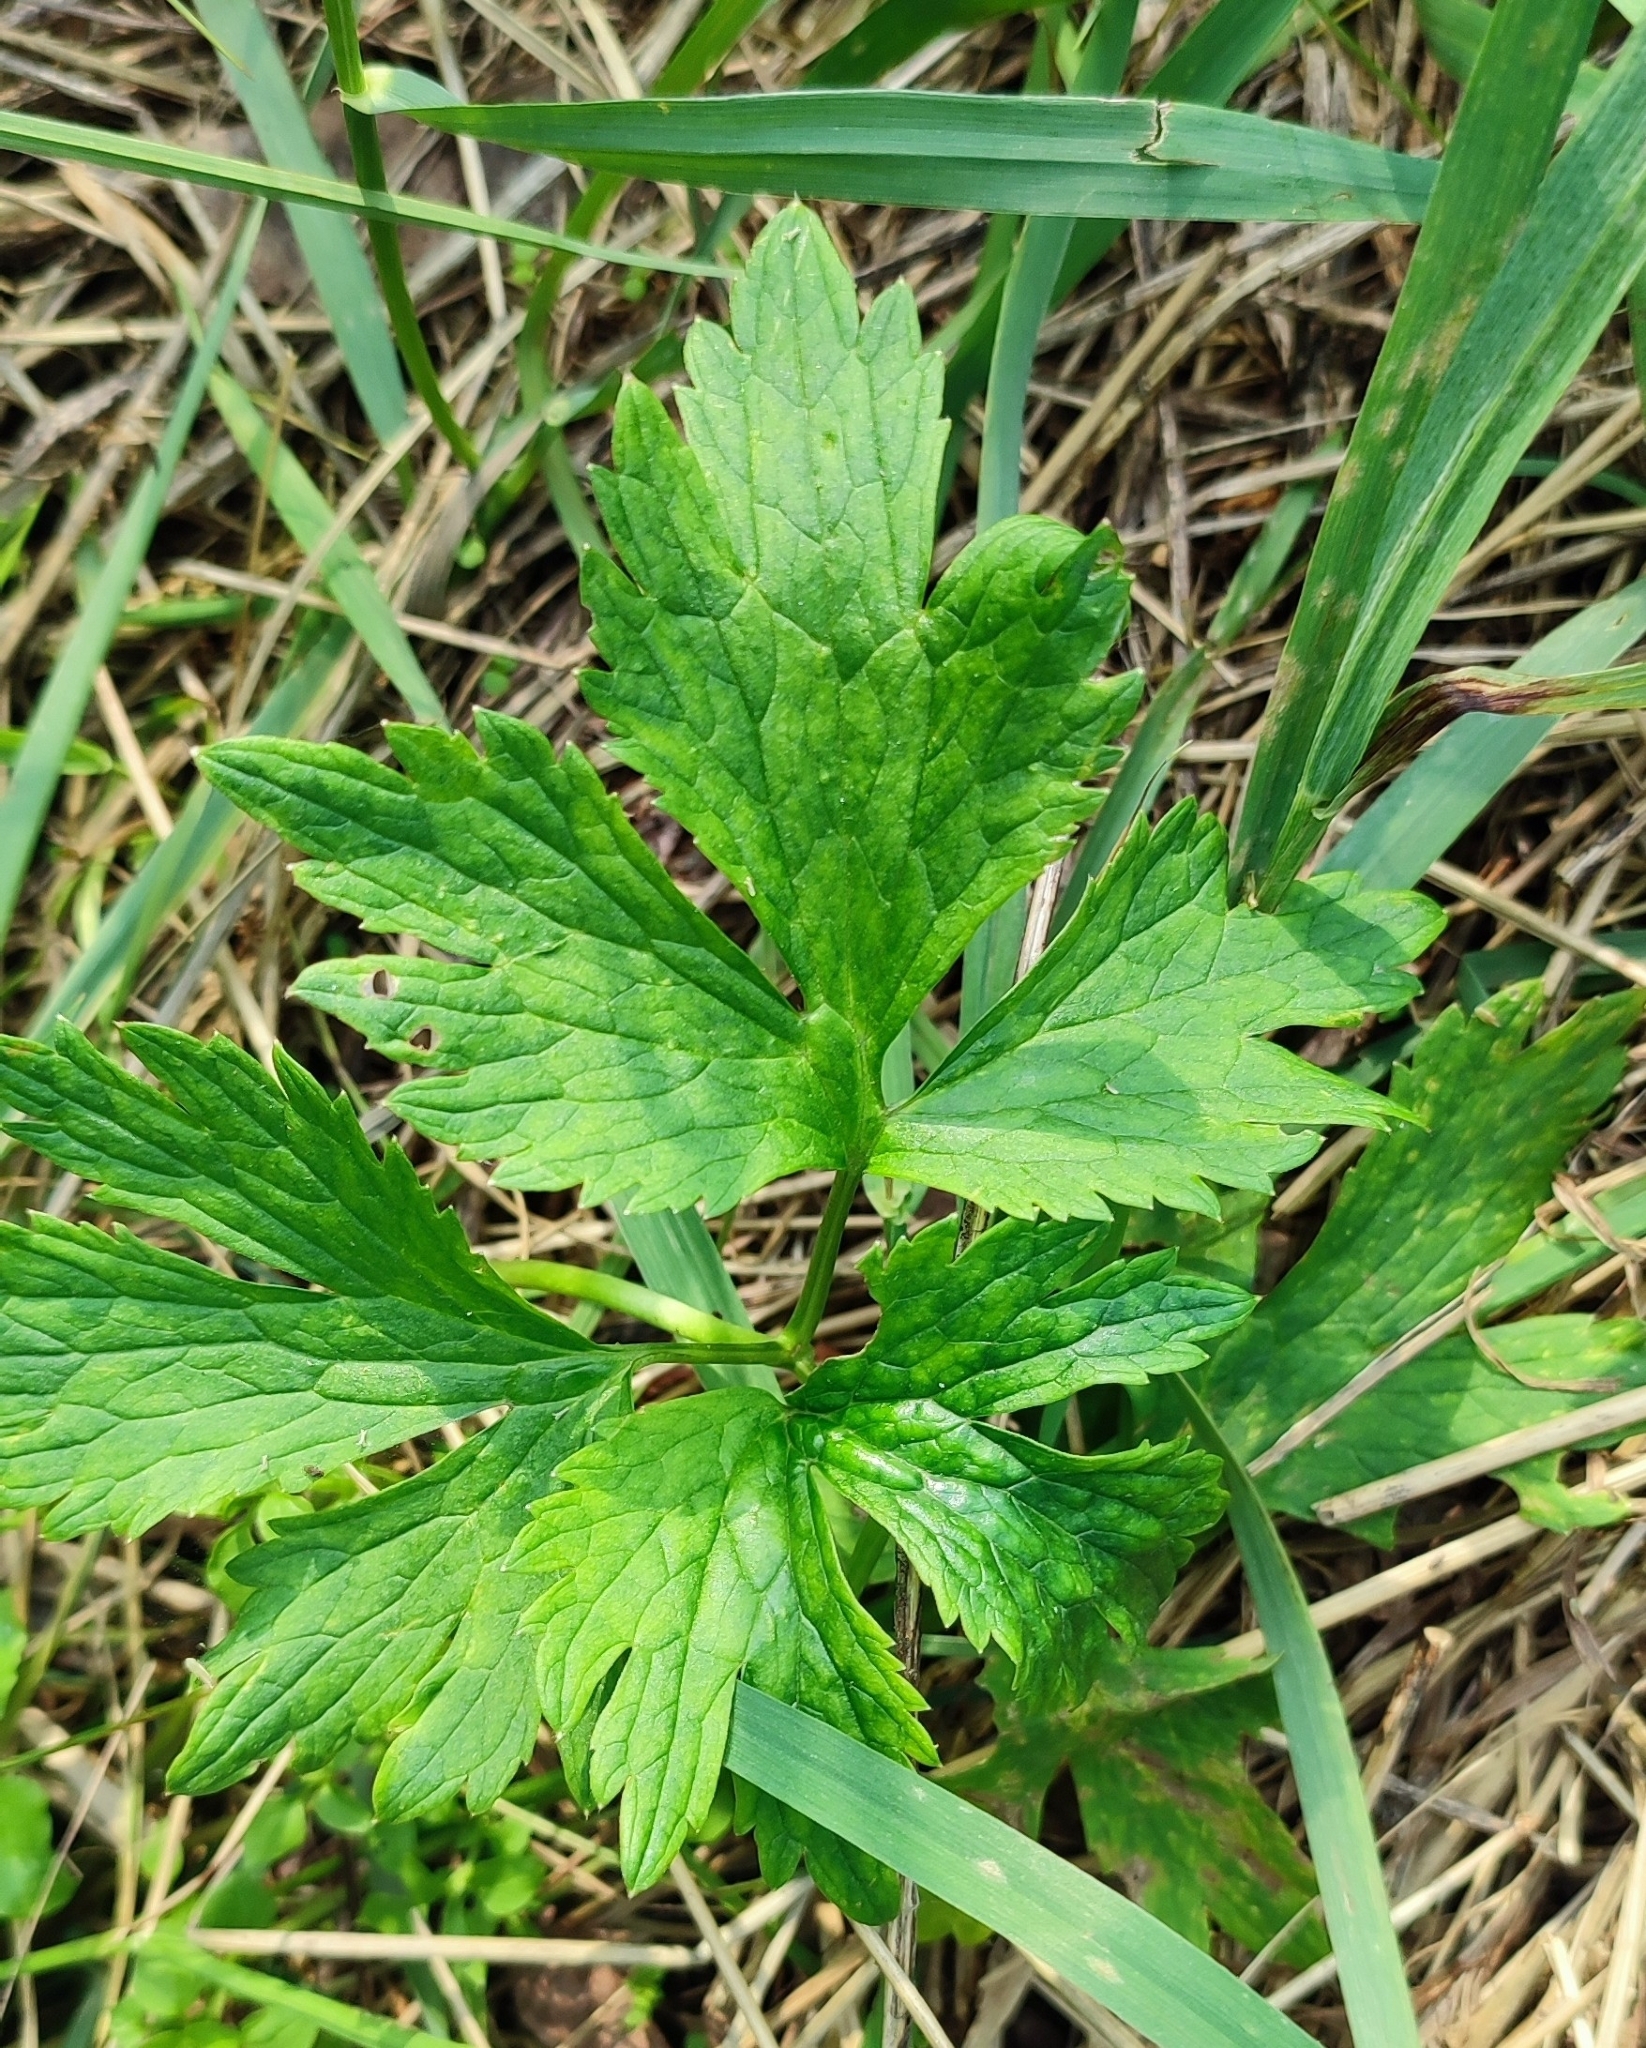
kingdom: Plantae
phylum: Tracheophyta
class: Magnoliopsida
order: Ranunculales
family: Ranunculaceae
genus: Ranunculus
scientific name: Ranunculus repens
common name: Creeping buttercup
